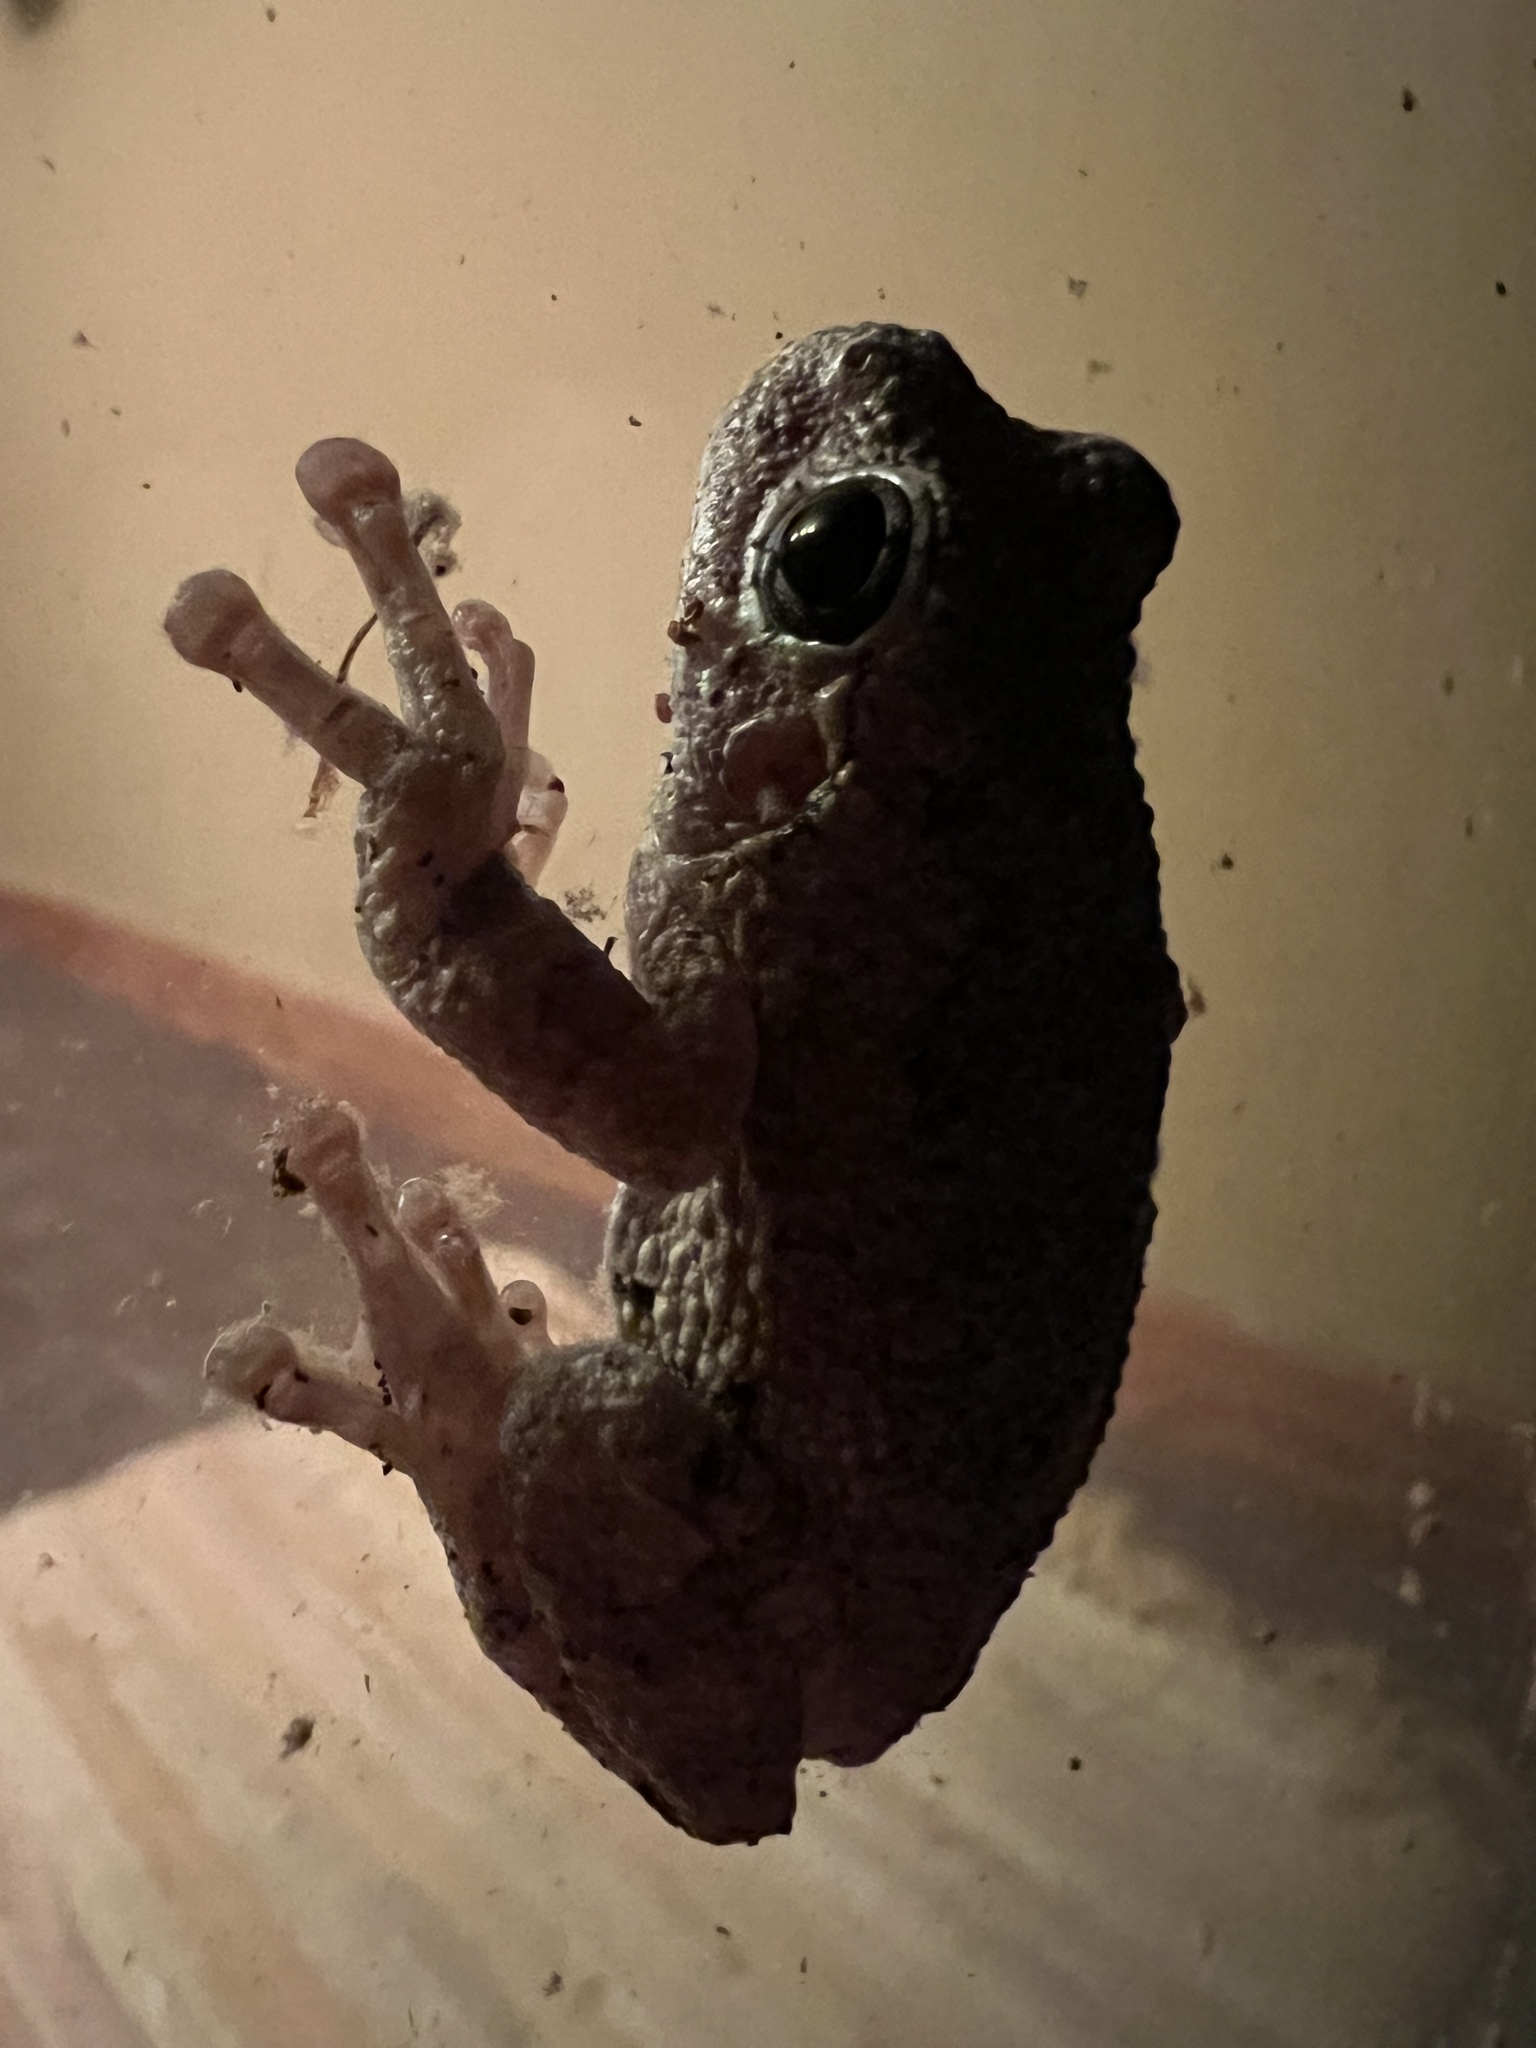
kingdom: Animalia
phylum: Chordata
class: Amphibia
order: Anura
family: Hylidae
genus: Dryophytes
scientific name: Dryophytes chrysoscelis
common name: Cope's gray treefrog
